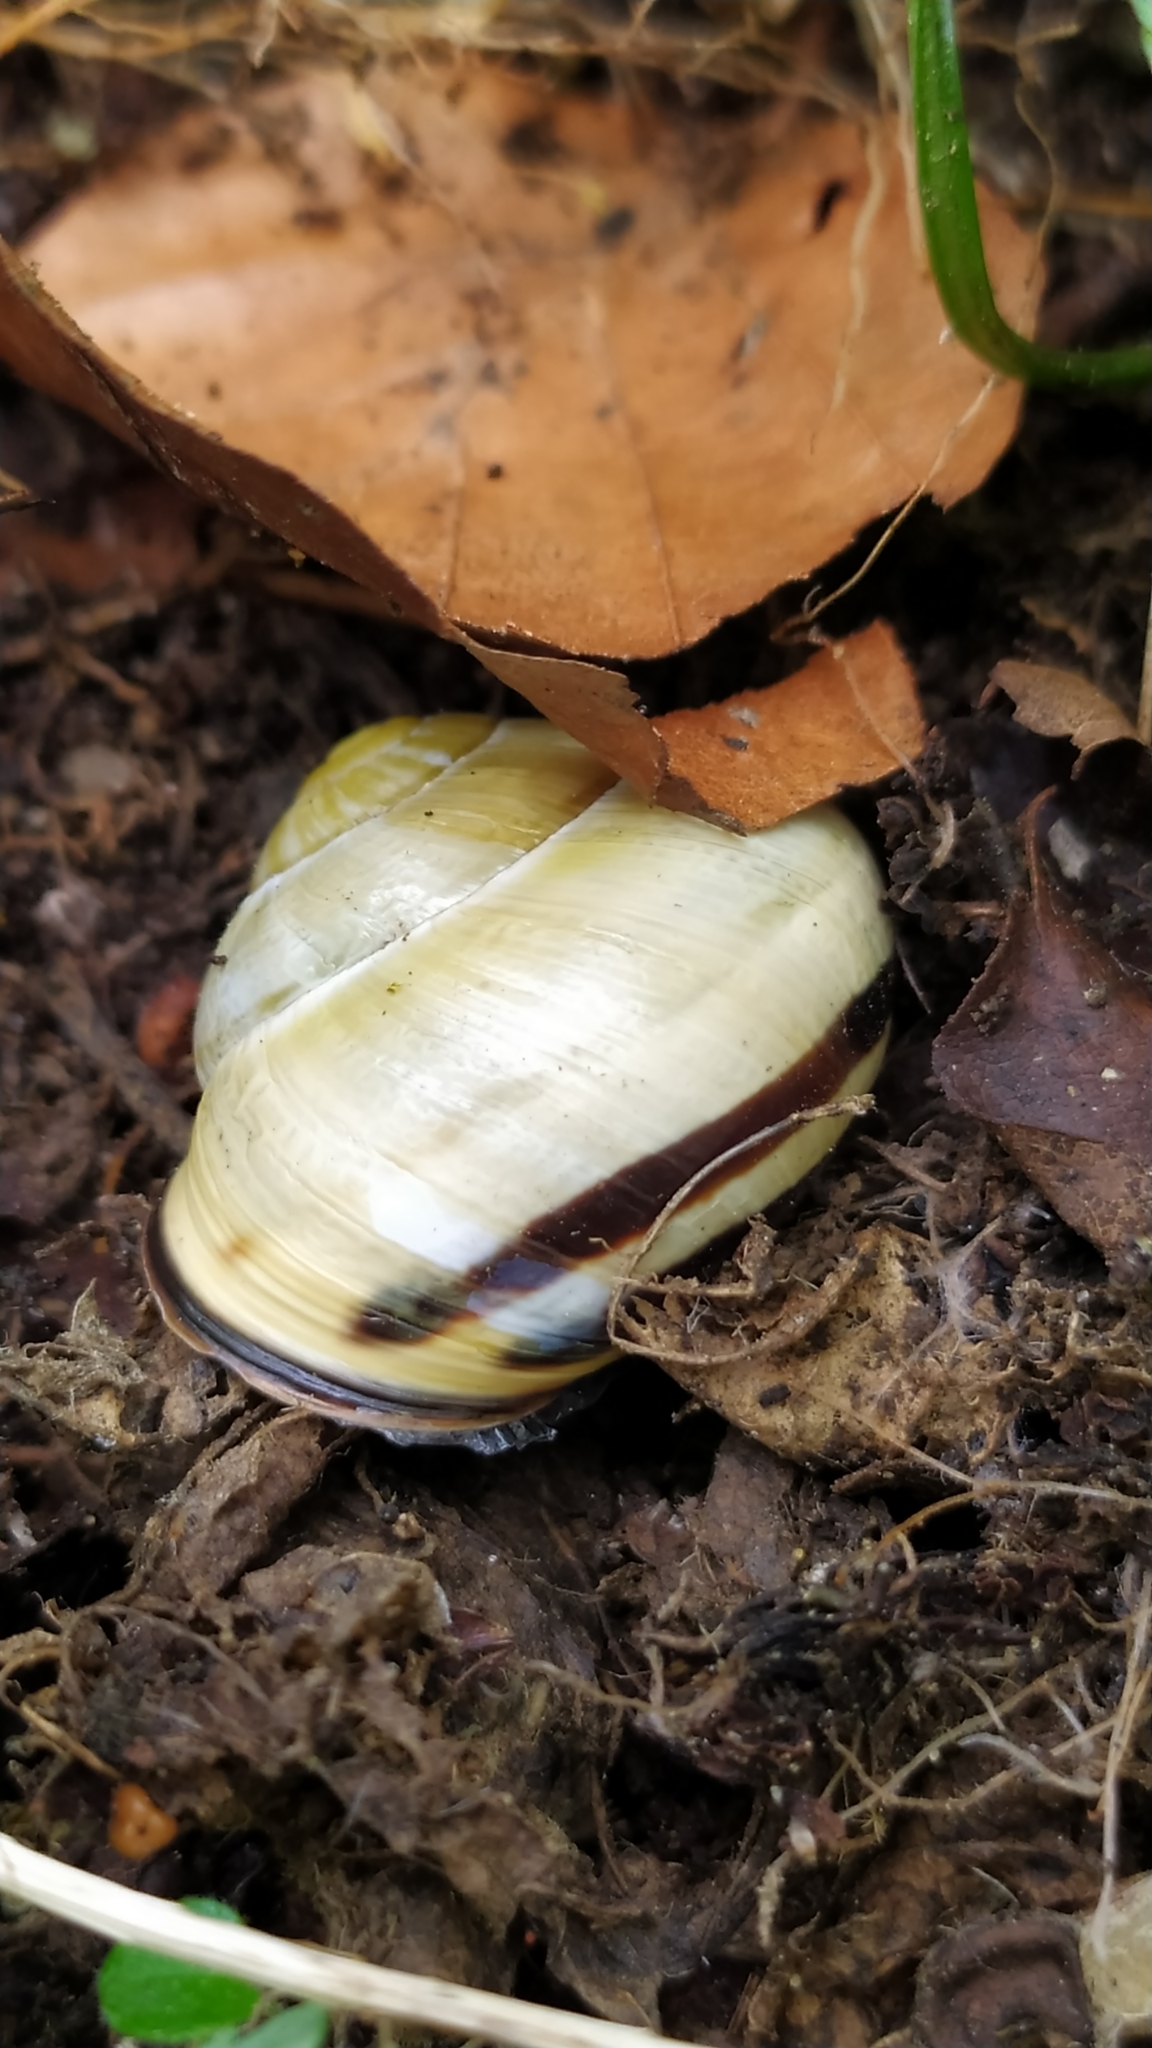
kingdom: Animalia
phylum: Mollusca
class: Gastropoda
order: Stylommatophora
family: Helicidae
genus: Cepaea
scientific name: Cepaea nemoralis
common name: Grovesnail
